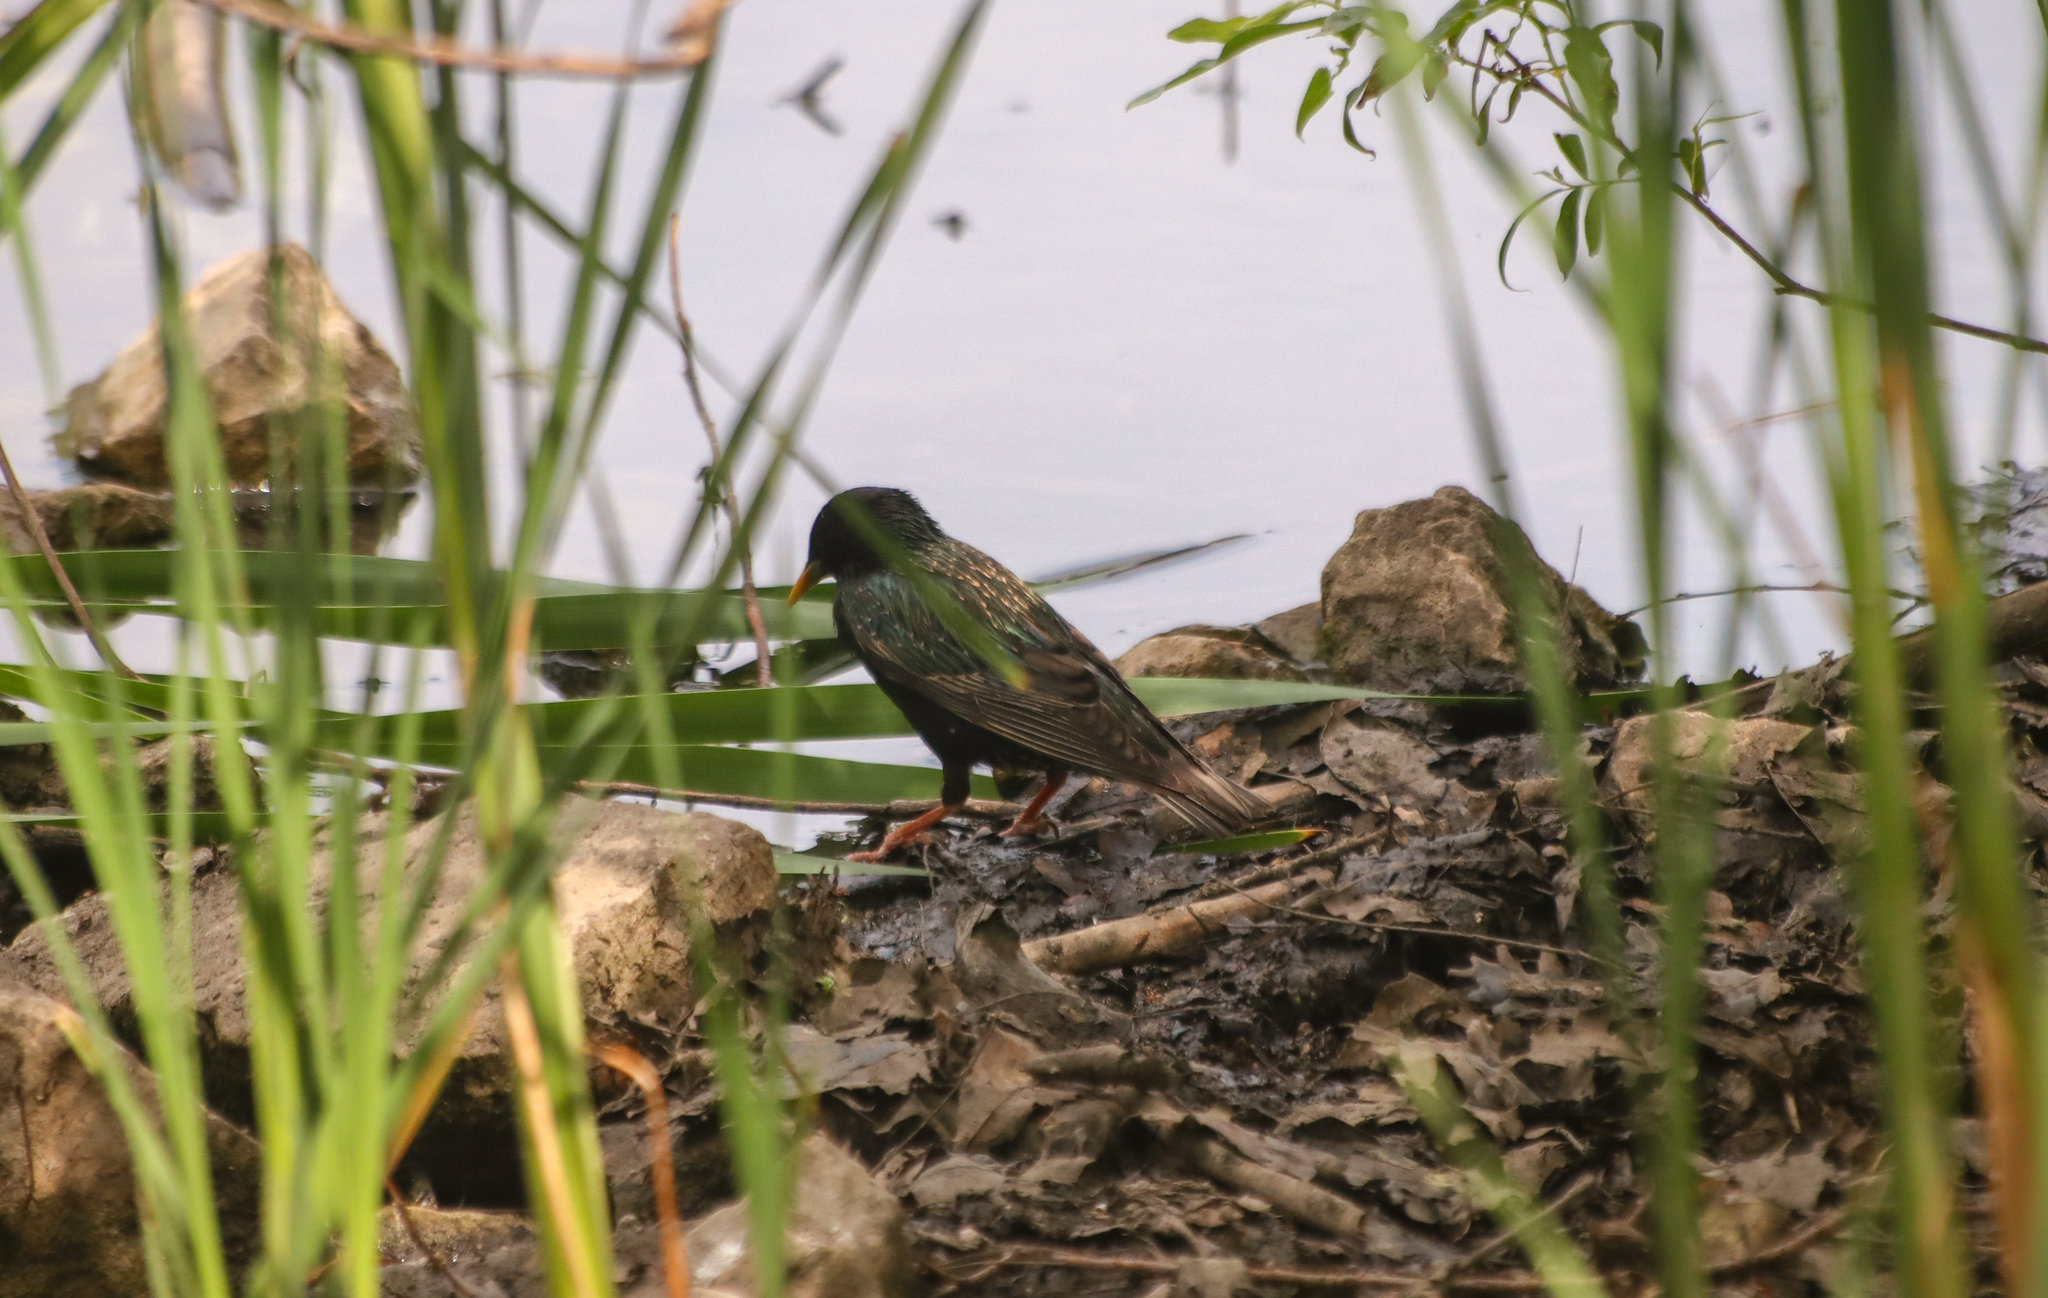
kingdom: Animalia
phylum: Chordata
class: Aves
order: Passeriformes
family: Sturnidae
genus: Sturnus
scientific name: Sturnus vulgaris
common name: Common starling
